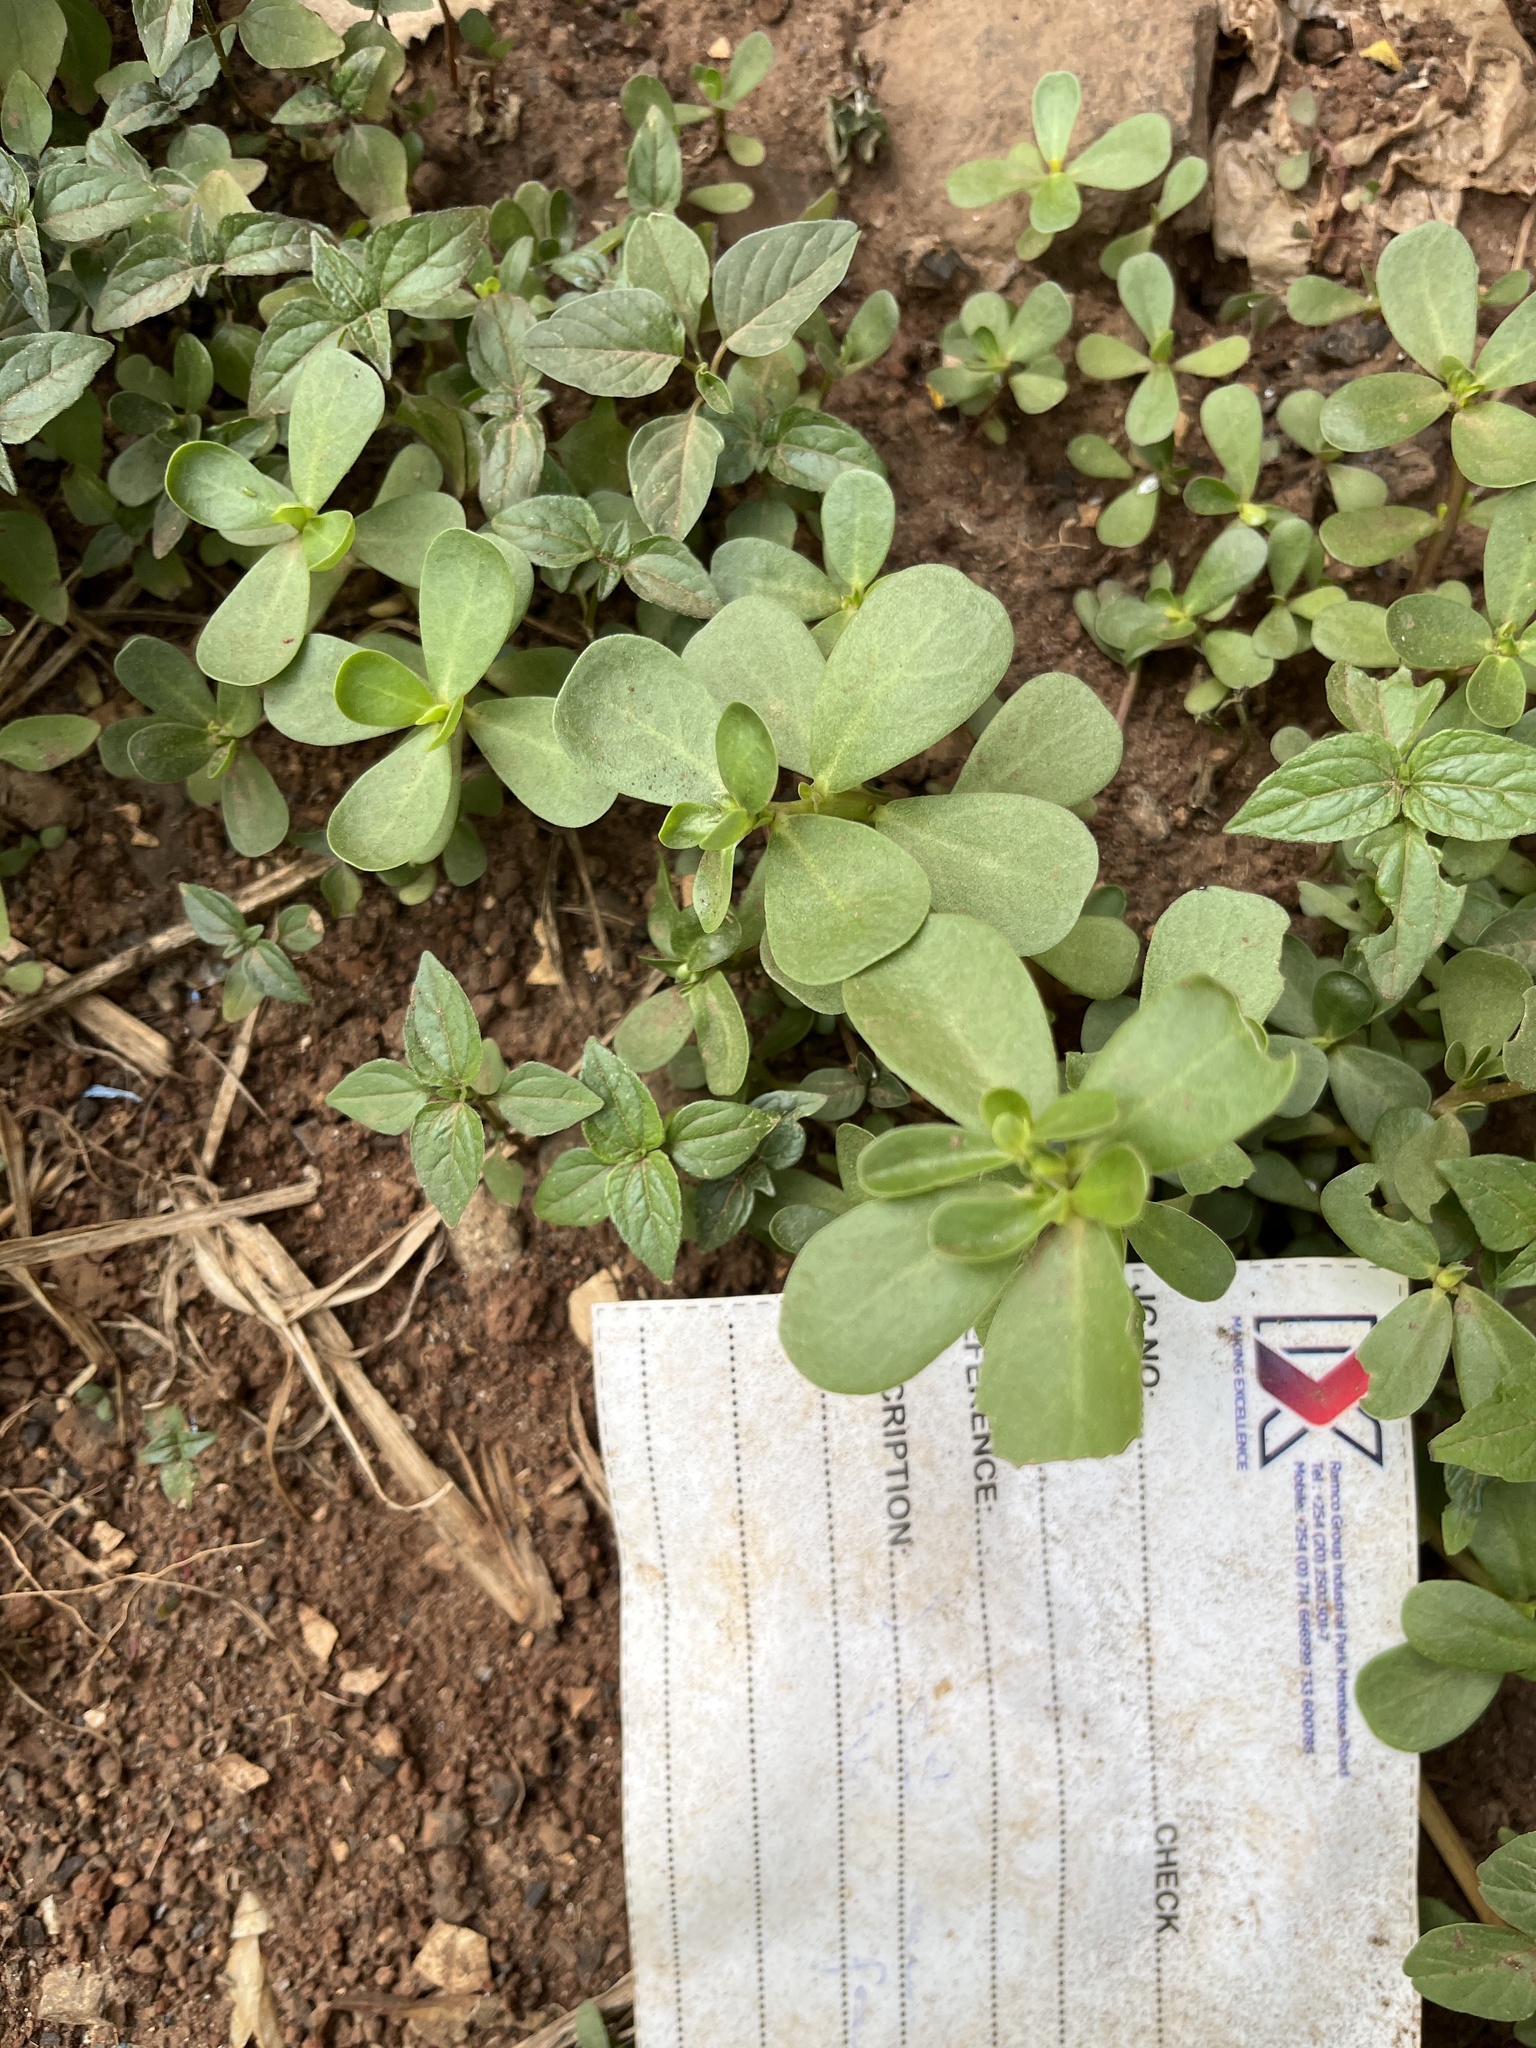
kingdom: Plantae
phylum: Tracheophyta
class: Magnoliopsida
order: Caryophyllales
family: Portulacaceae
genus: Portulaca
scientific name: Portulaca oleracea
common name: Common purslane
